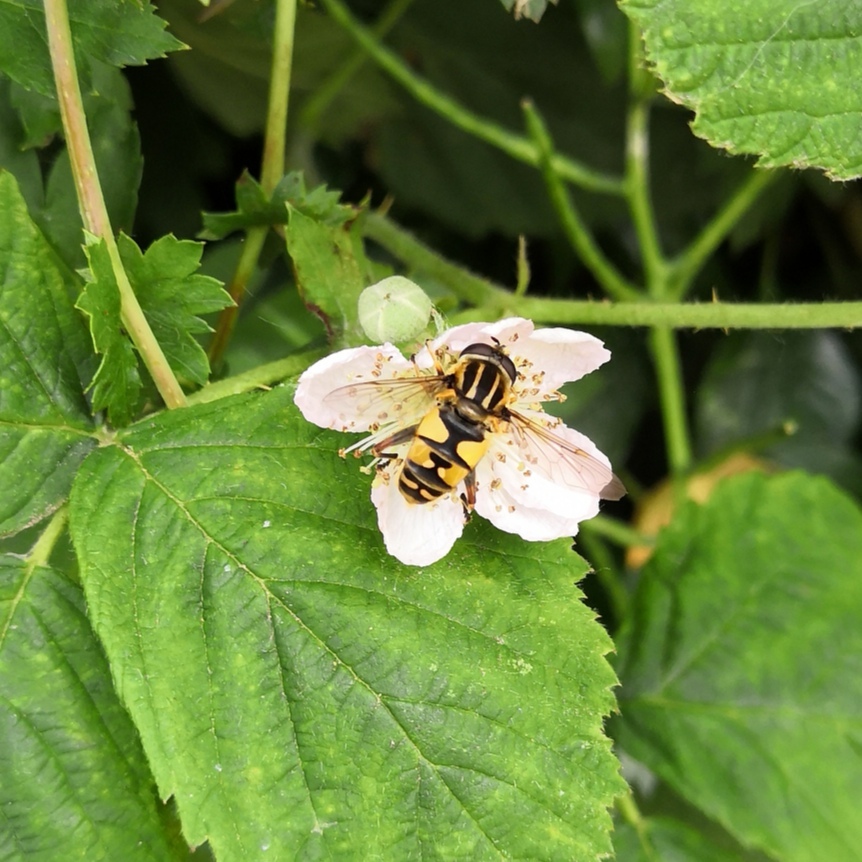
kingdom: Animalia
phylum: Arthropoda
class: Insecta
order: Diptera
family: Syrphidae
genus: Helophilus
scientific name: Helophilus pendulus
